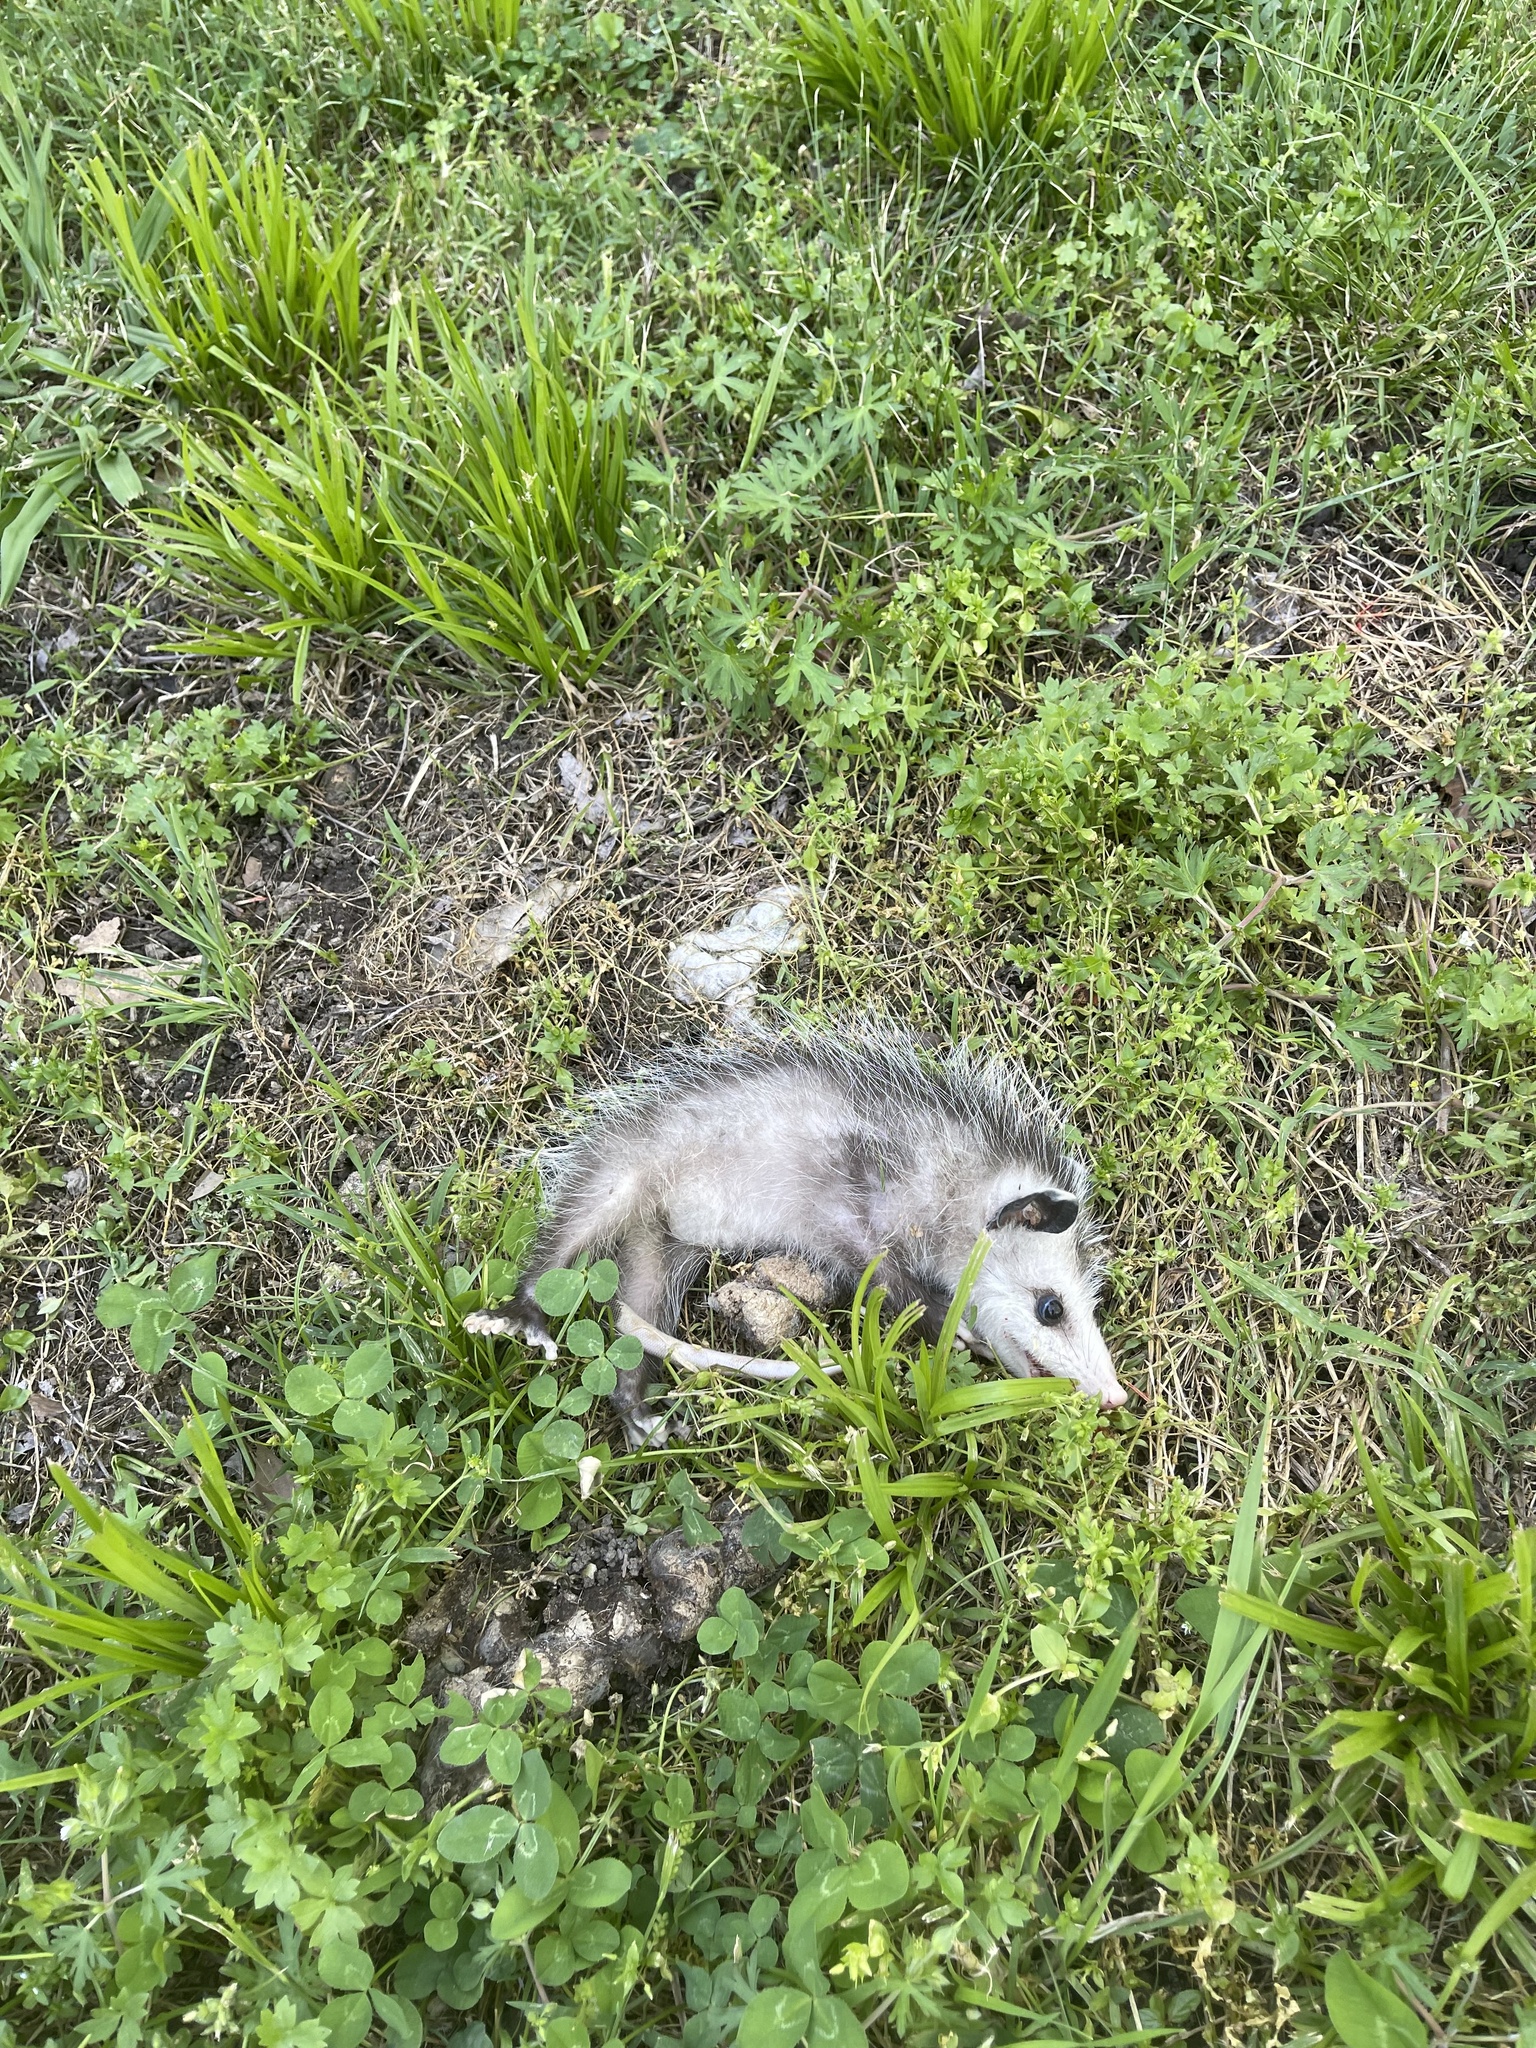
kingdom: Animalia
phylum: Chordata
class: Mammalia
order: Didelphimorphia
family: Didelphidae
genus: Didelphis
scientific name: Didelphis virginiana
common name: Virginia opossum
